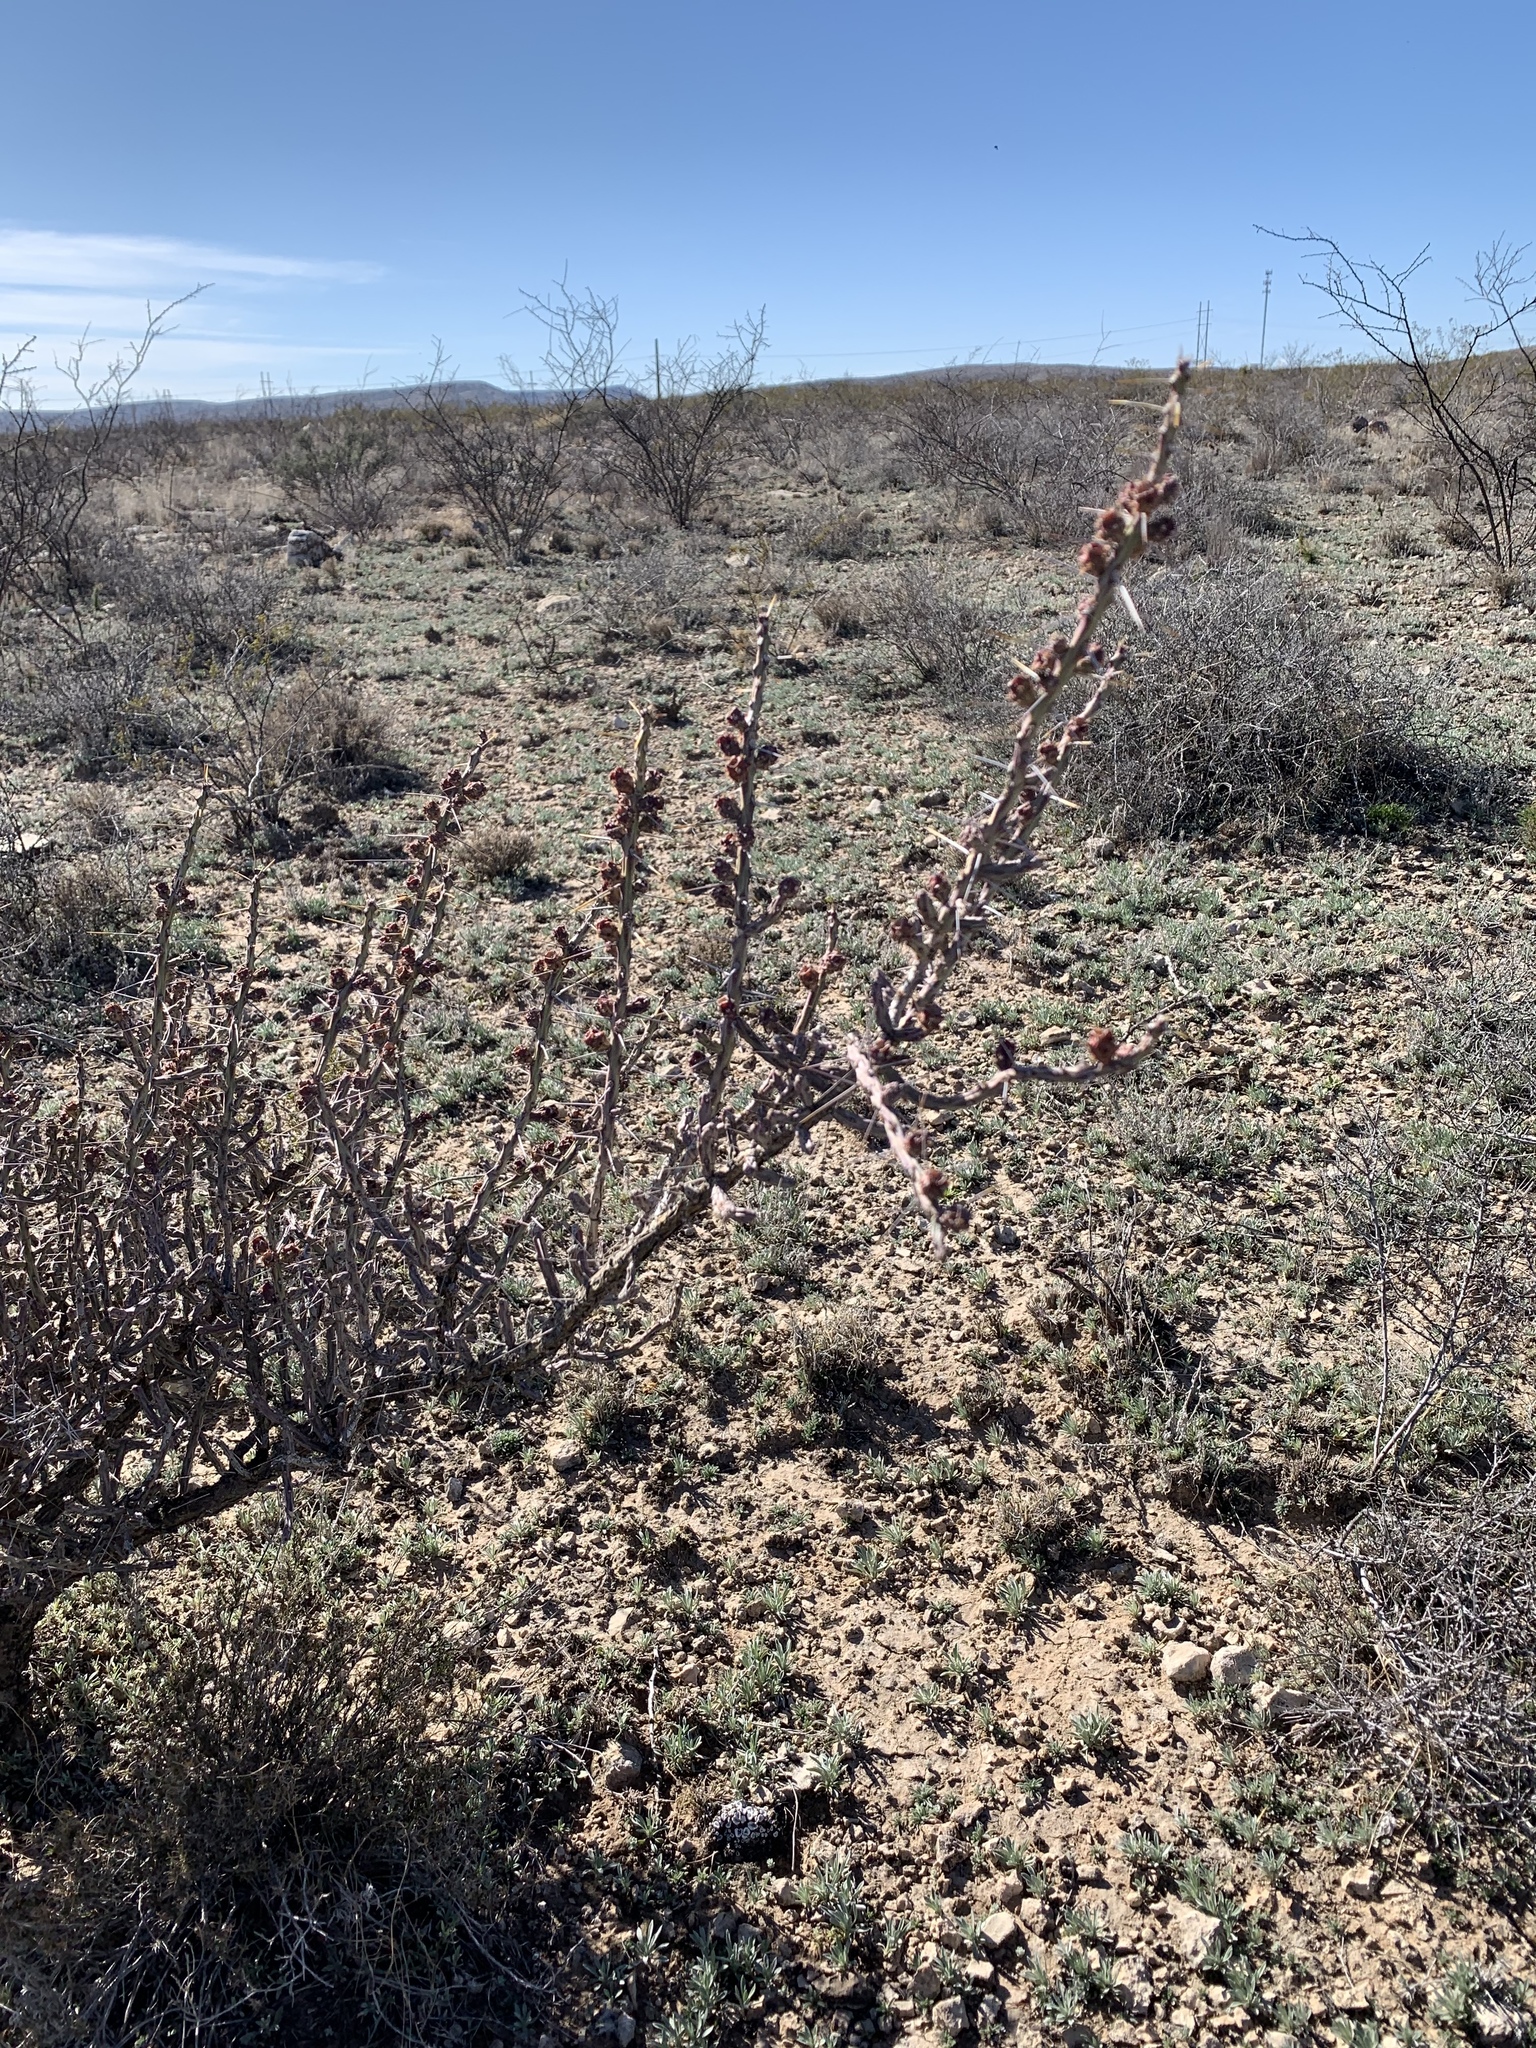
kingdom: Plantae
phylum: Tracheophyta
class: Magnoliopsida
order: Caryophyllales
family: Cactaceae
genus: Cylindropuntia
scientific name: Cylindropuntia leptocaulis
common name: Christmas cactus
